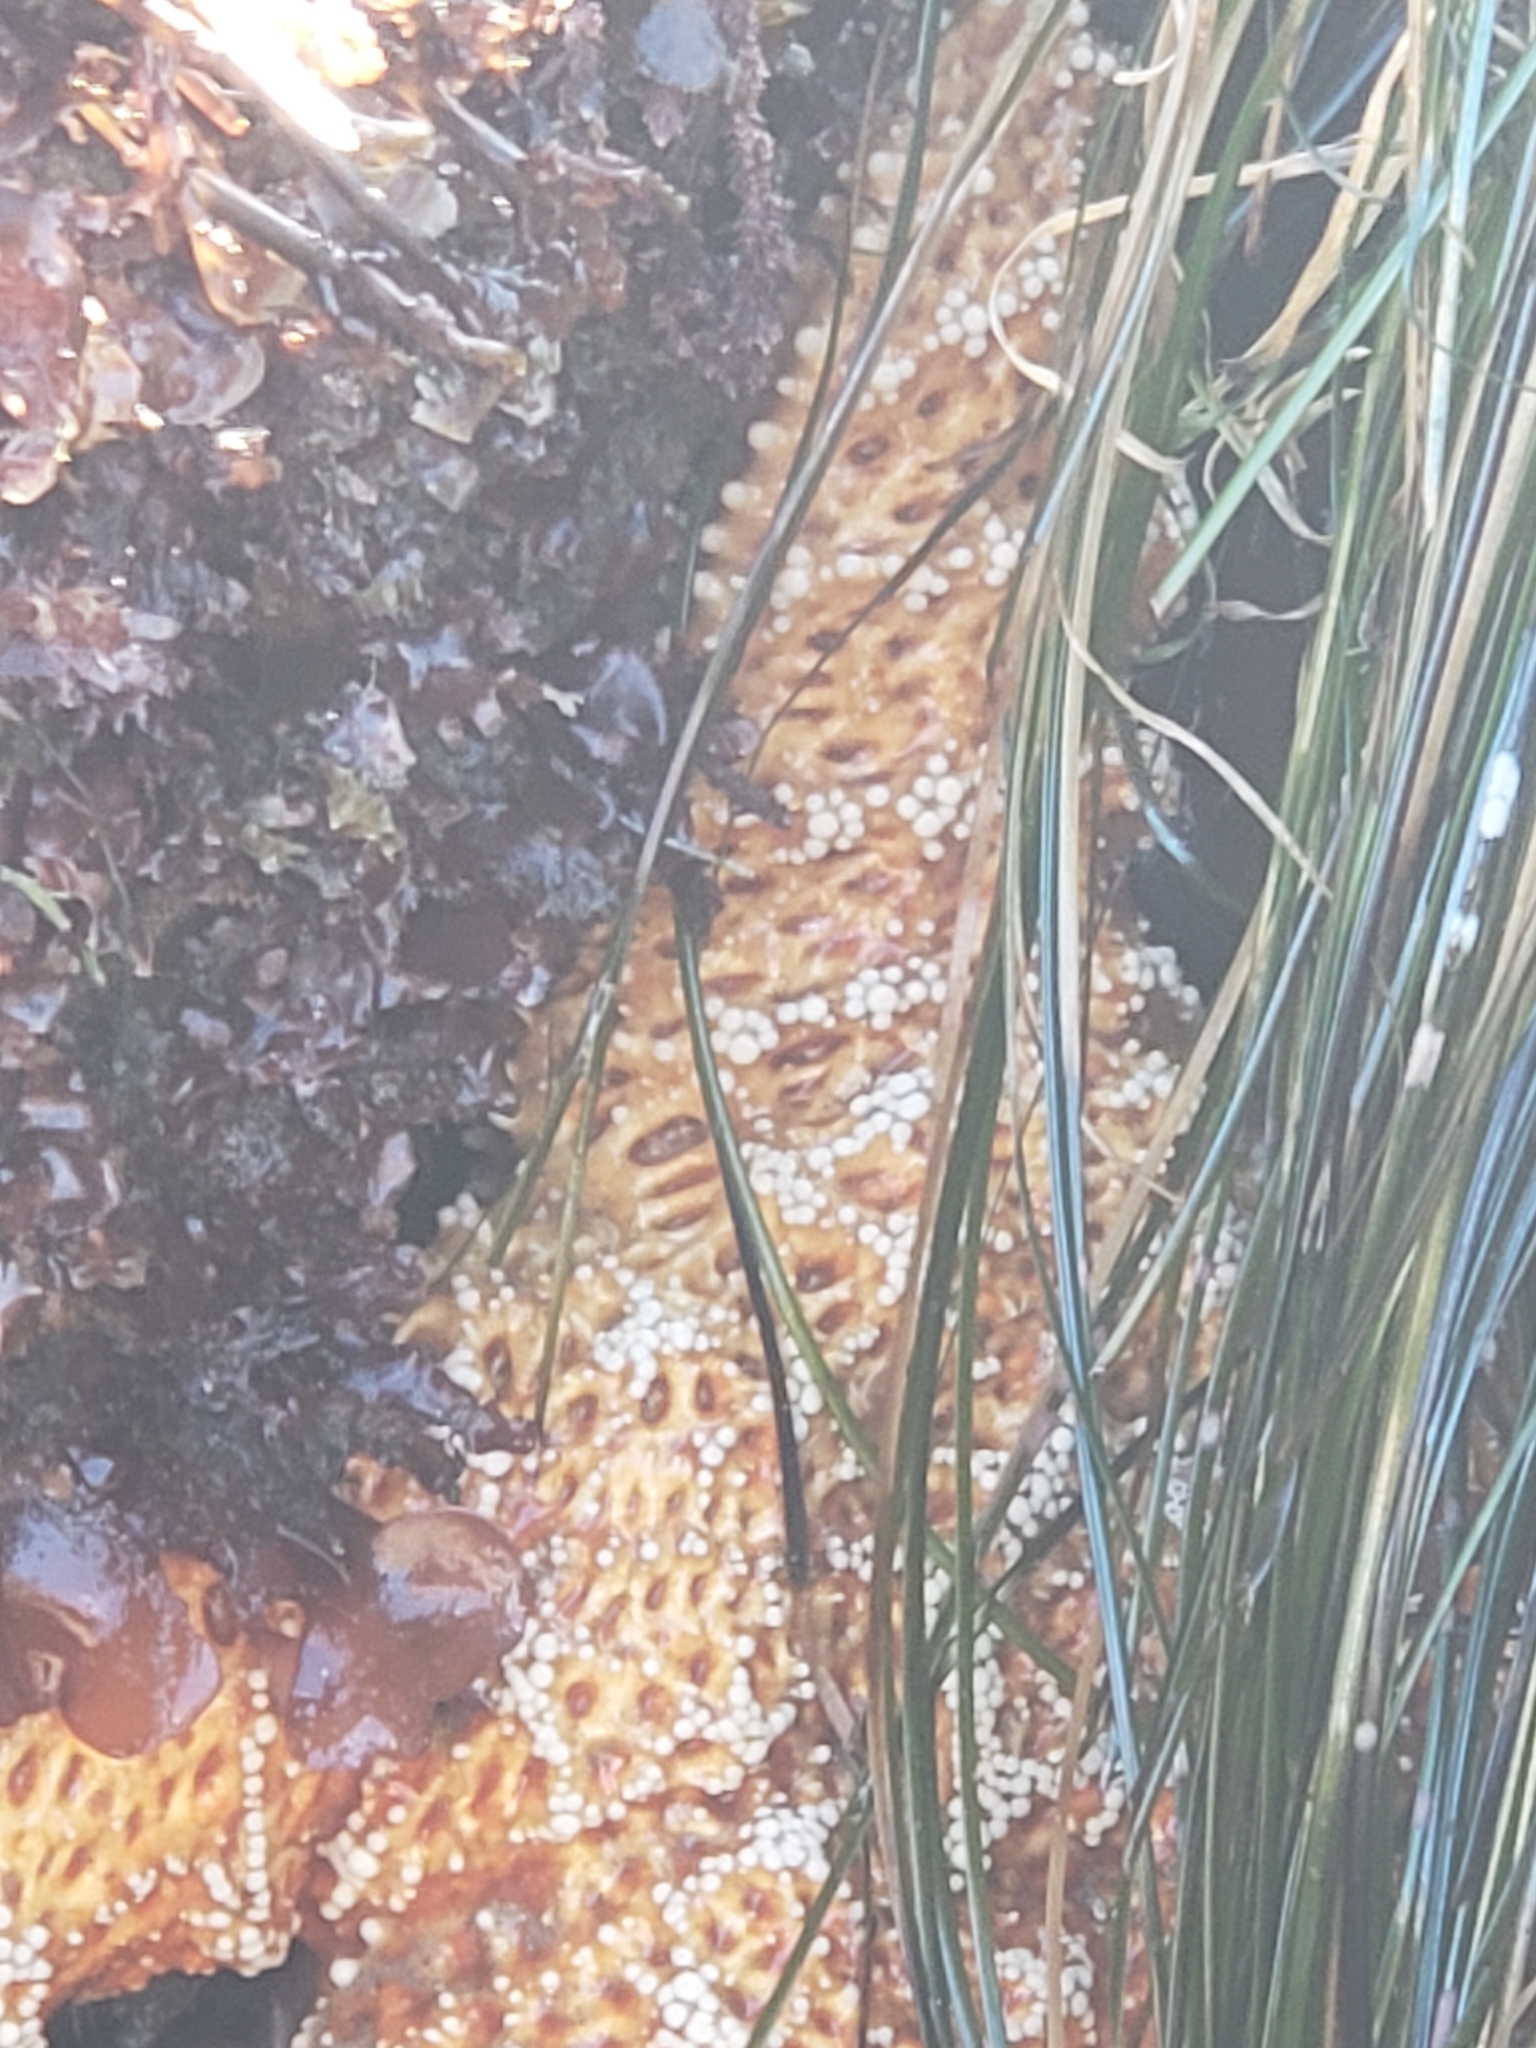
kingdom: Animalia
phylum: Echinodermata
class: Asteroidea
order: Forcipulatida
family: Asteriidae
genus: Pisaster
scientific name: Pisaster ochraceus
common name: Ochre stars
